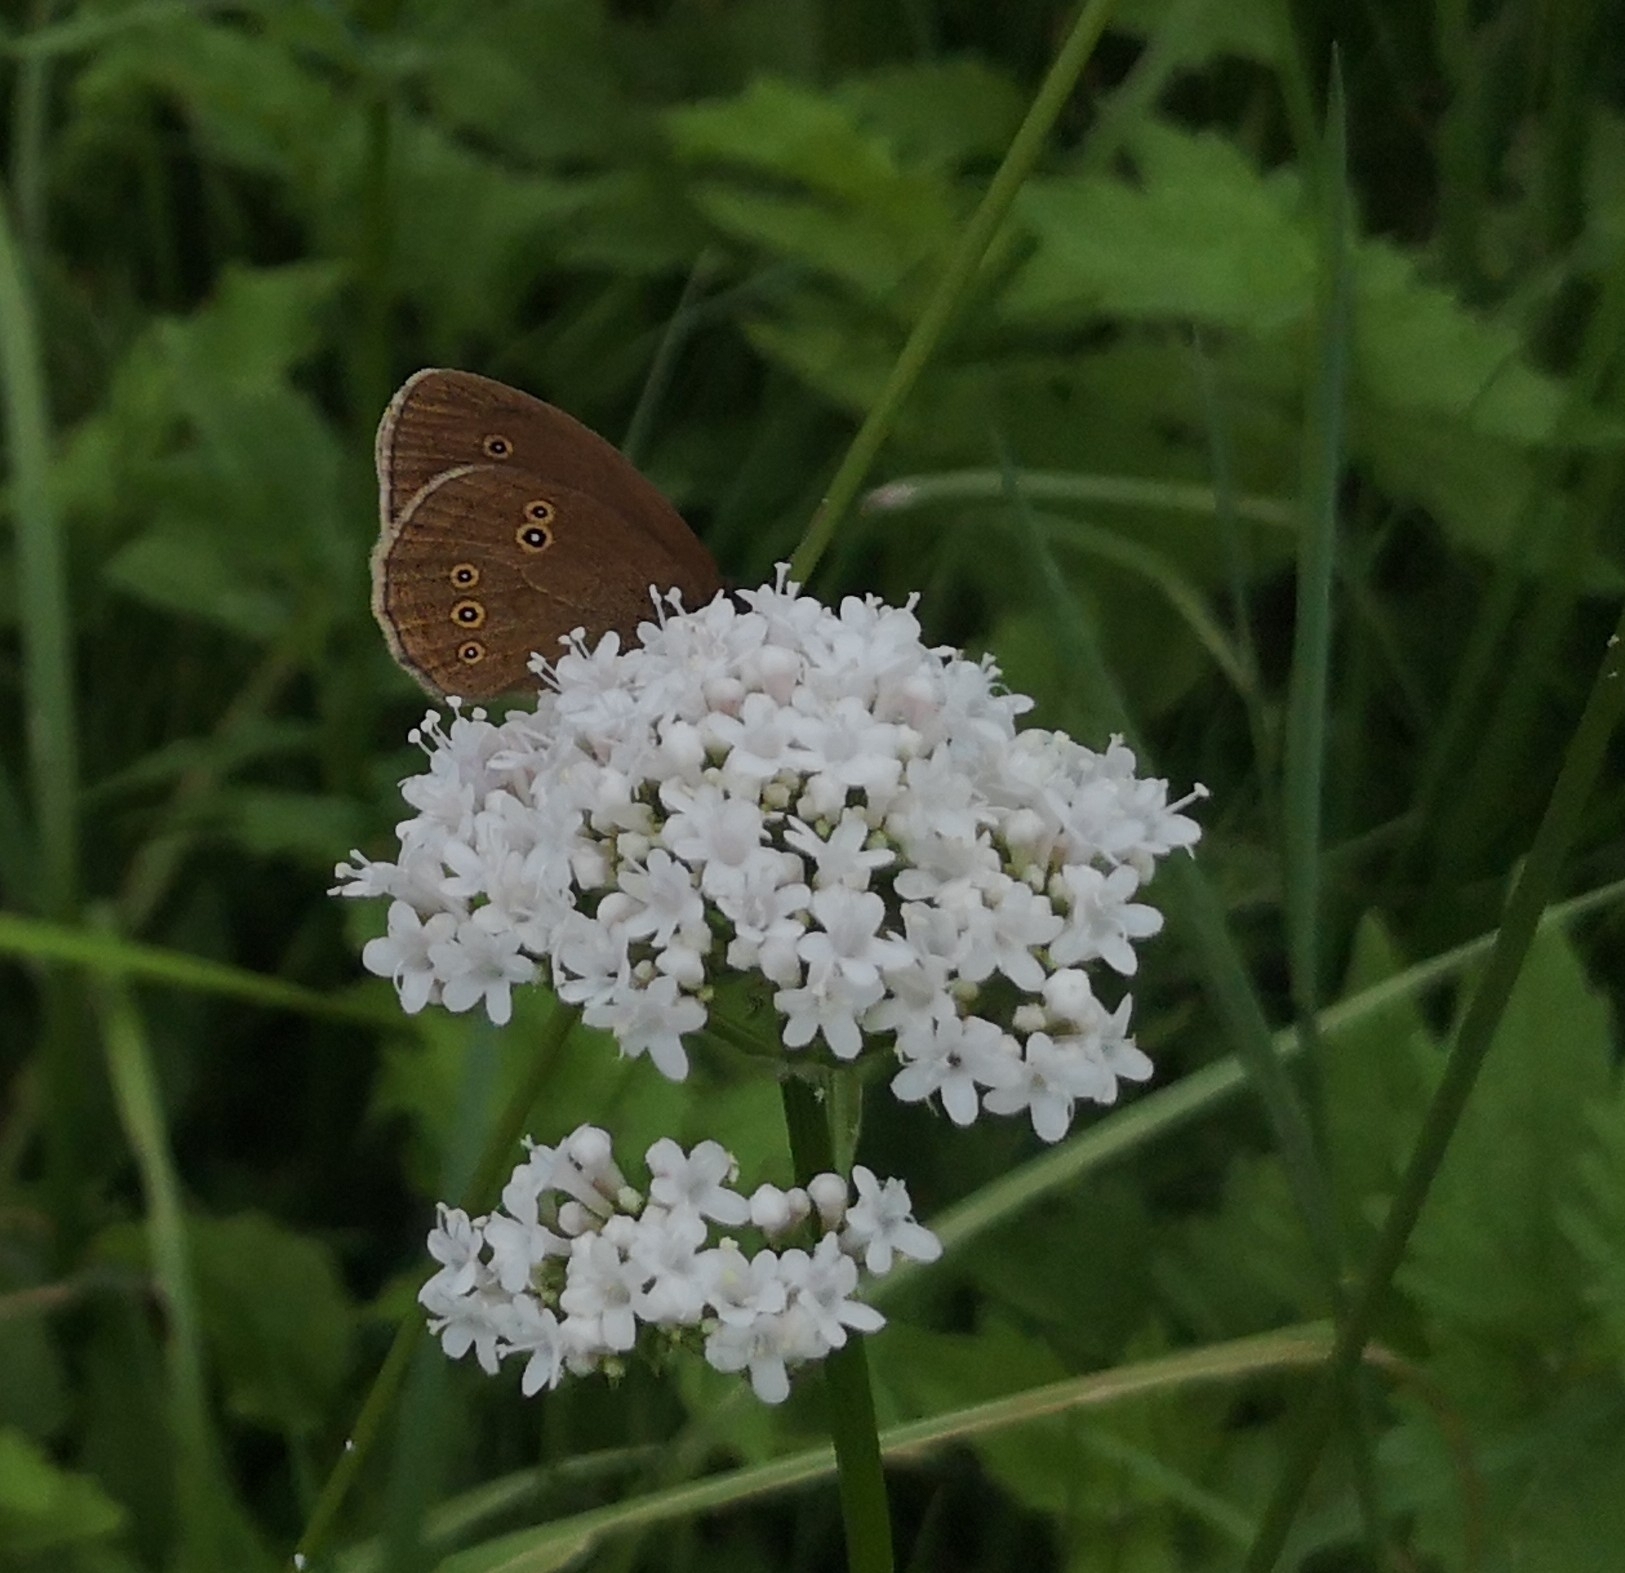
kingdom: Animalia
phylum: Arthropoda
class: Insecta
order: Lepidoptera
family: Nymphalidae
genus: Aphantopus
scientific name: Aphantopus hyperantus
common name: Ringlet
